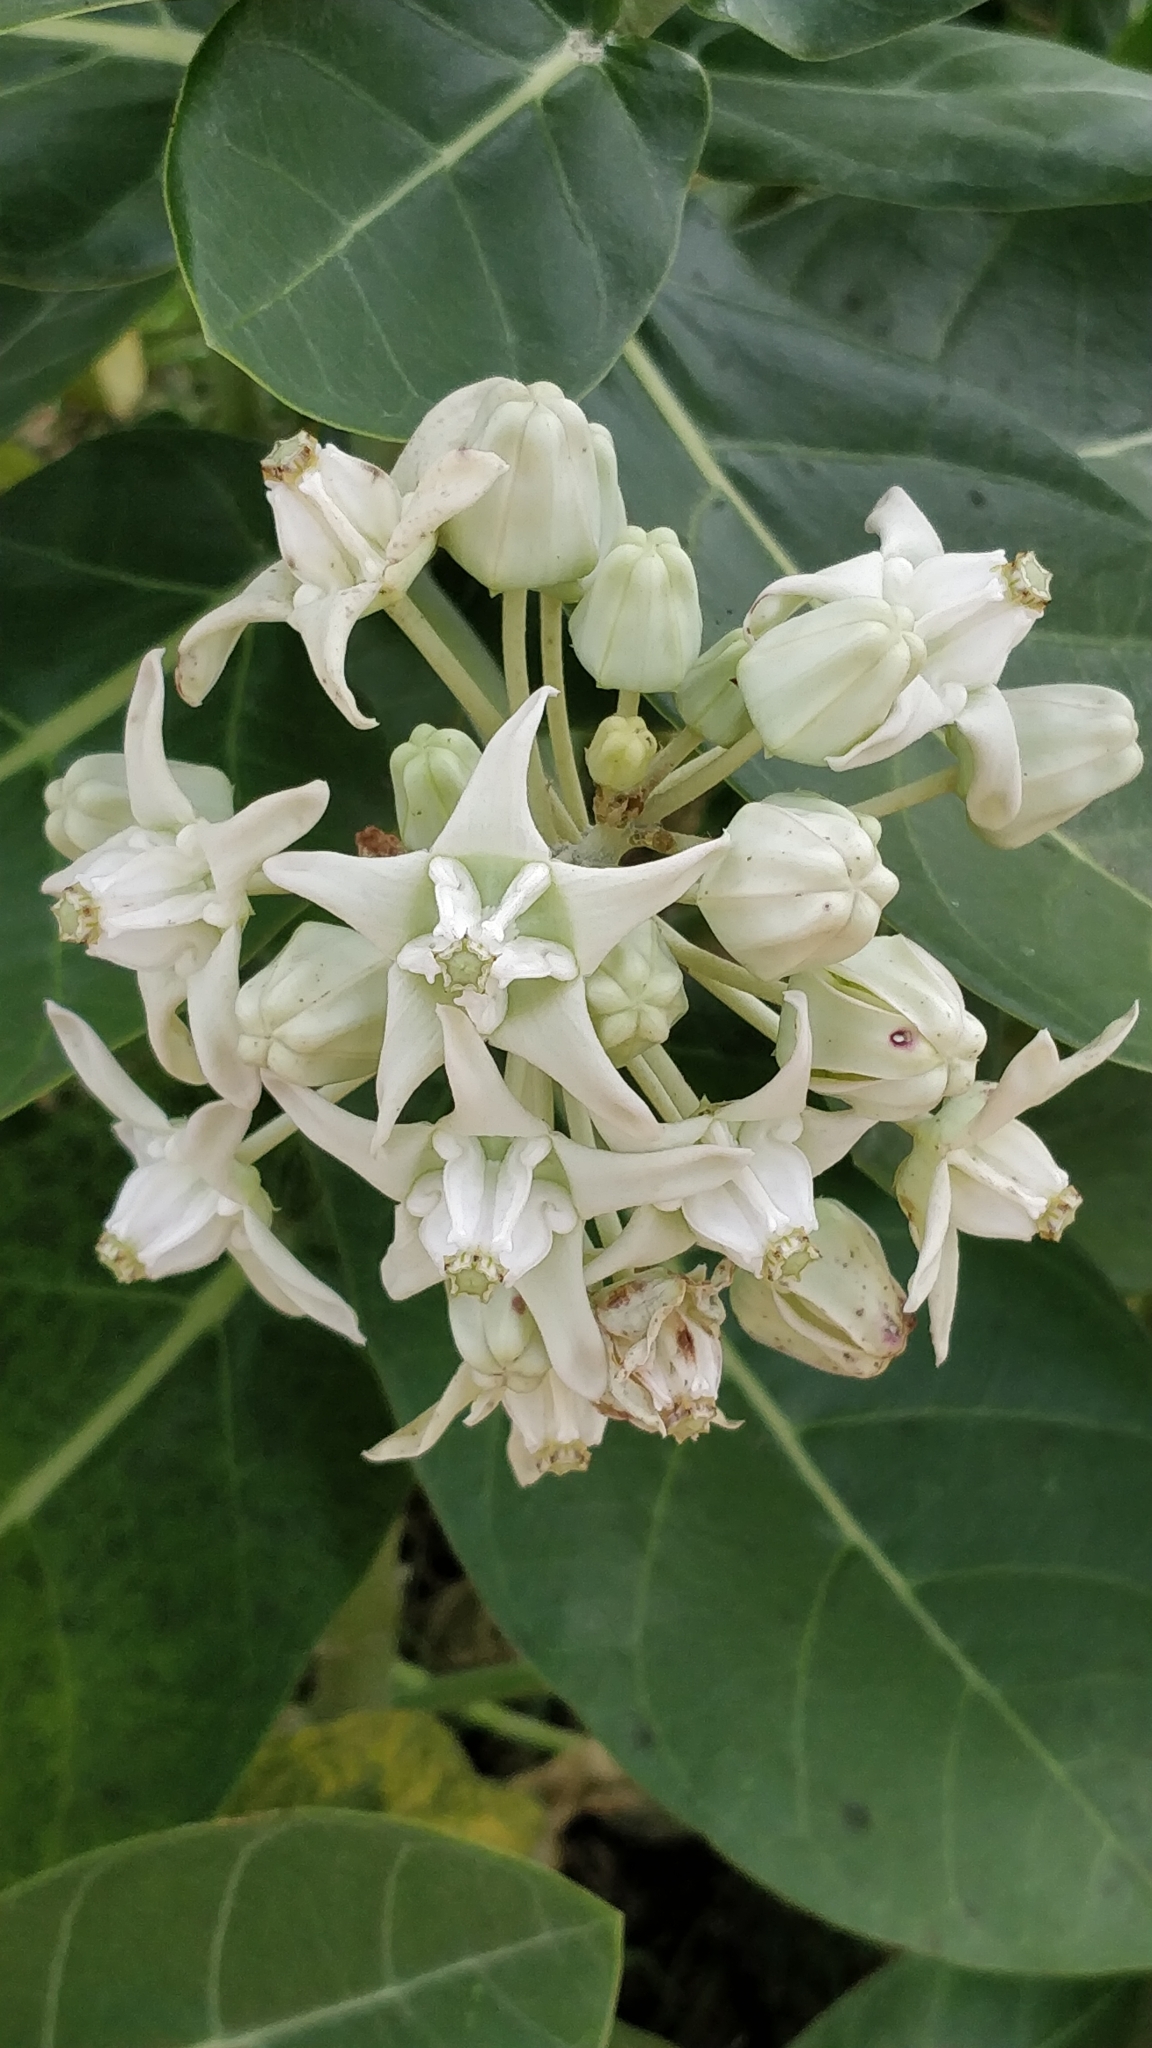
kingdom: Plantae
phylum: Tracheophyta
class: Magnoliopsida
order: Gentianales
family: Apocynaceae
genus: Calotropis
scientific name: Calotropis gigantea
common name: Crown flower
